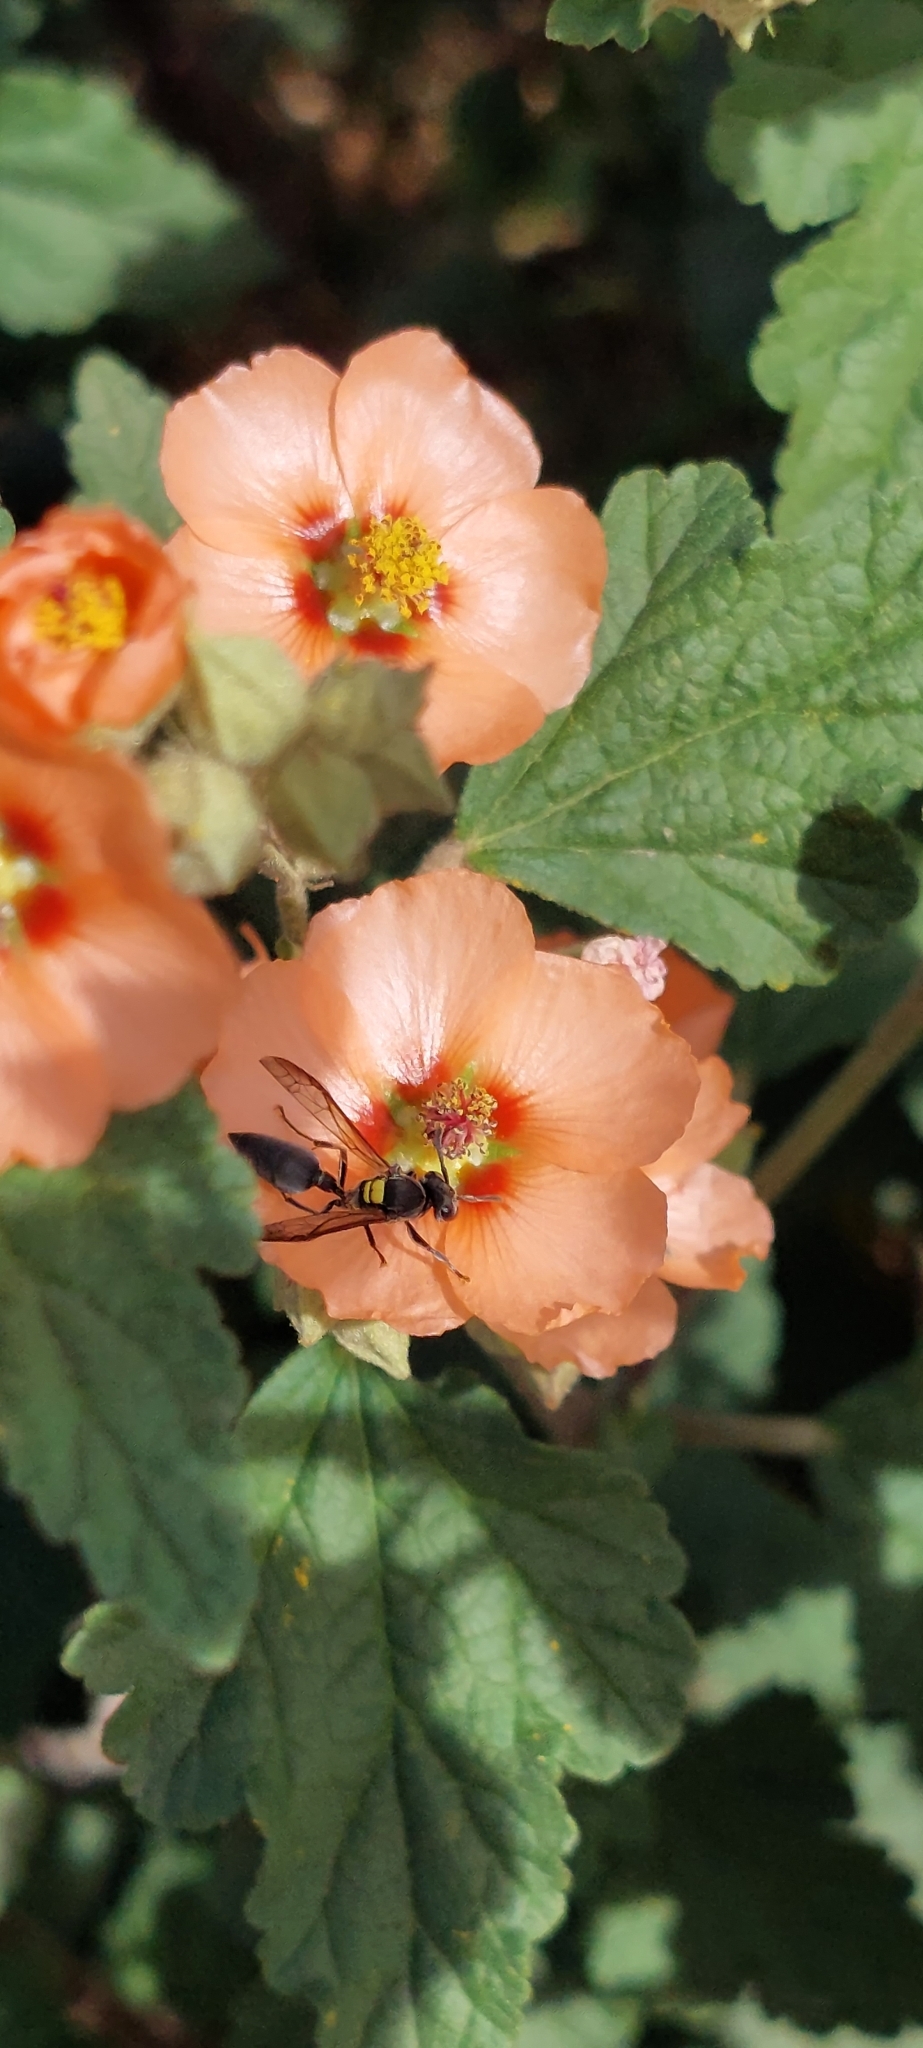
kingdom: Animalia
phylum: Arthropoda
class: Insecta
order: Hymenoptera
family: Eumenidae
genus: Polybia
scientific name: Polybia scutellaris
